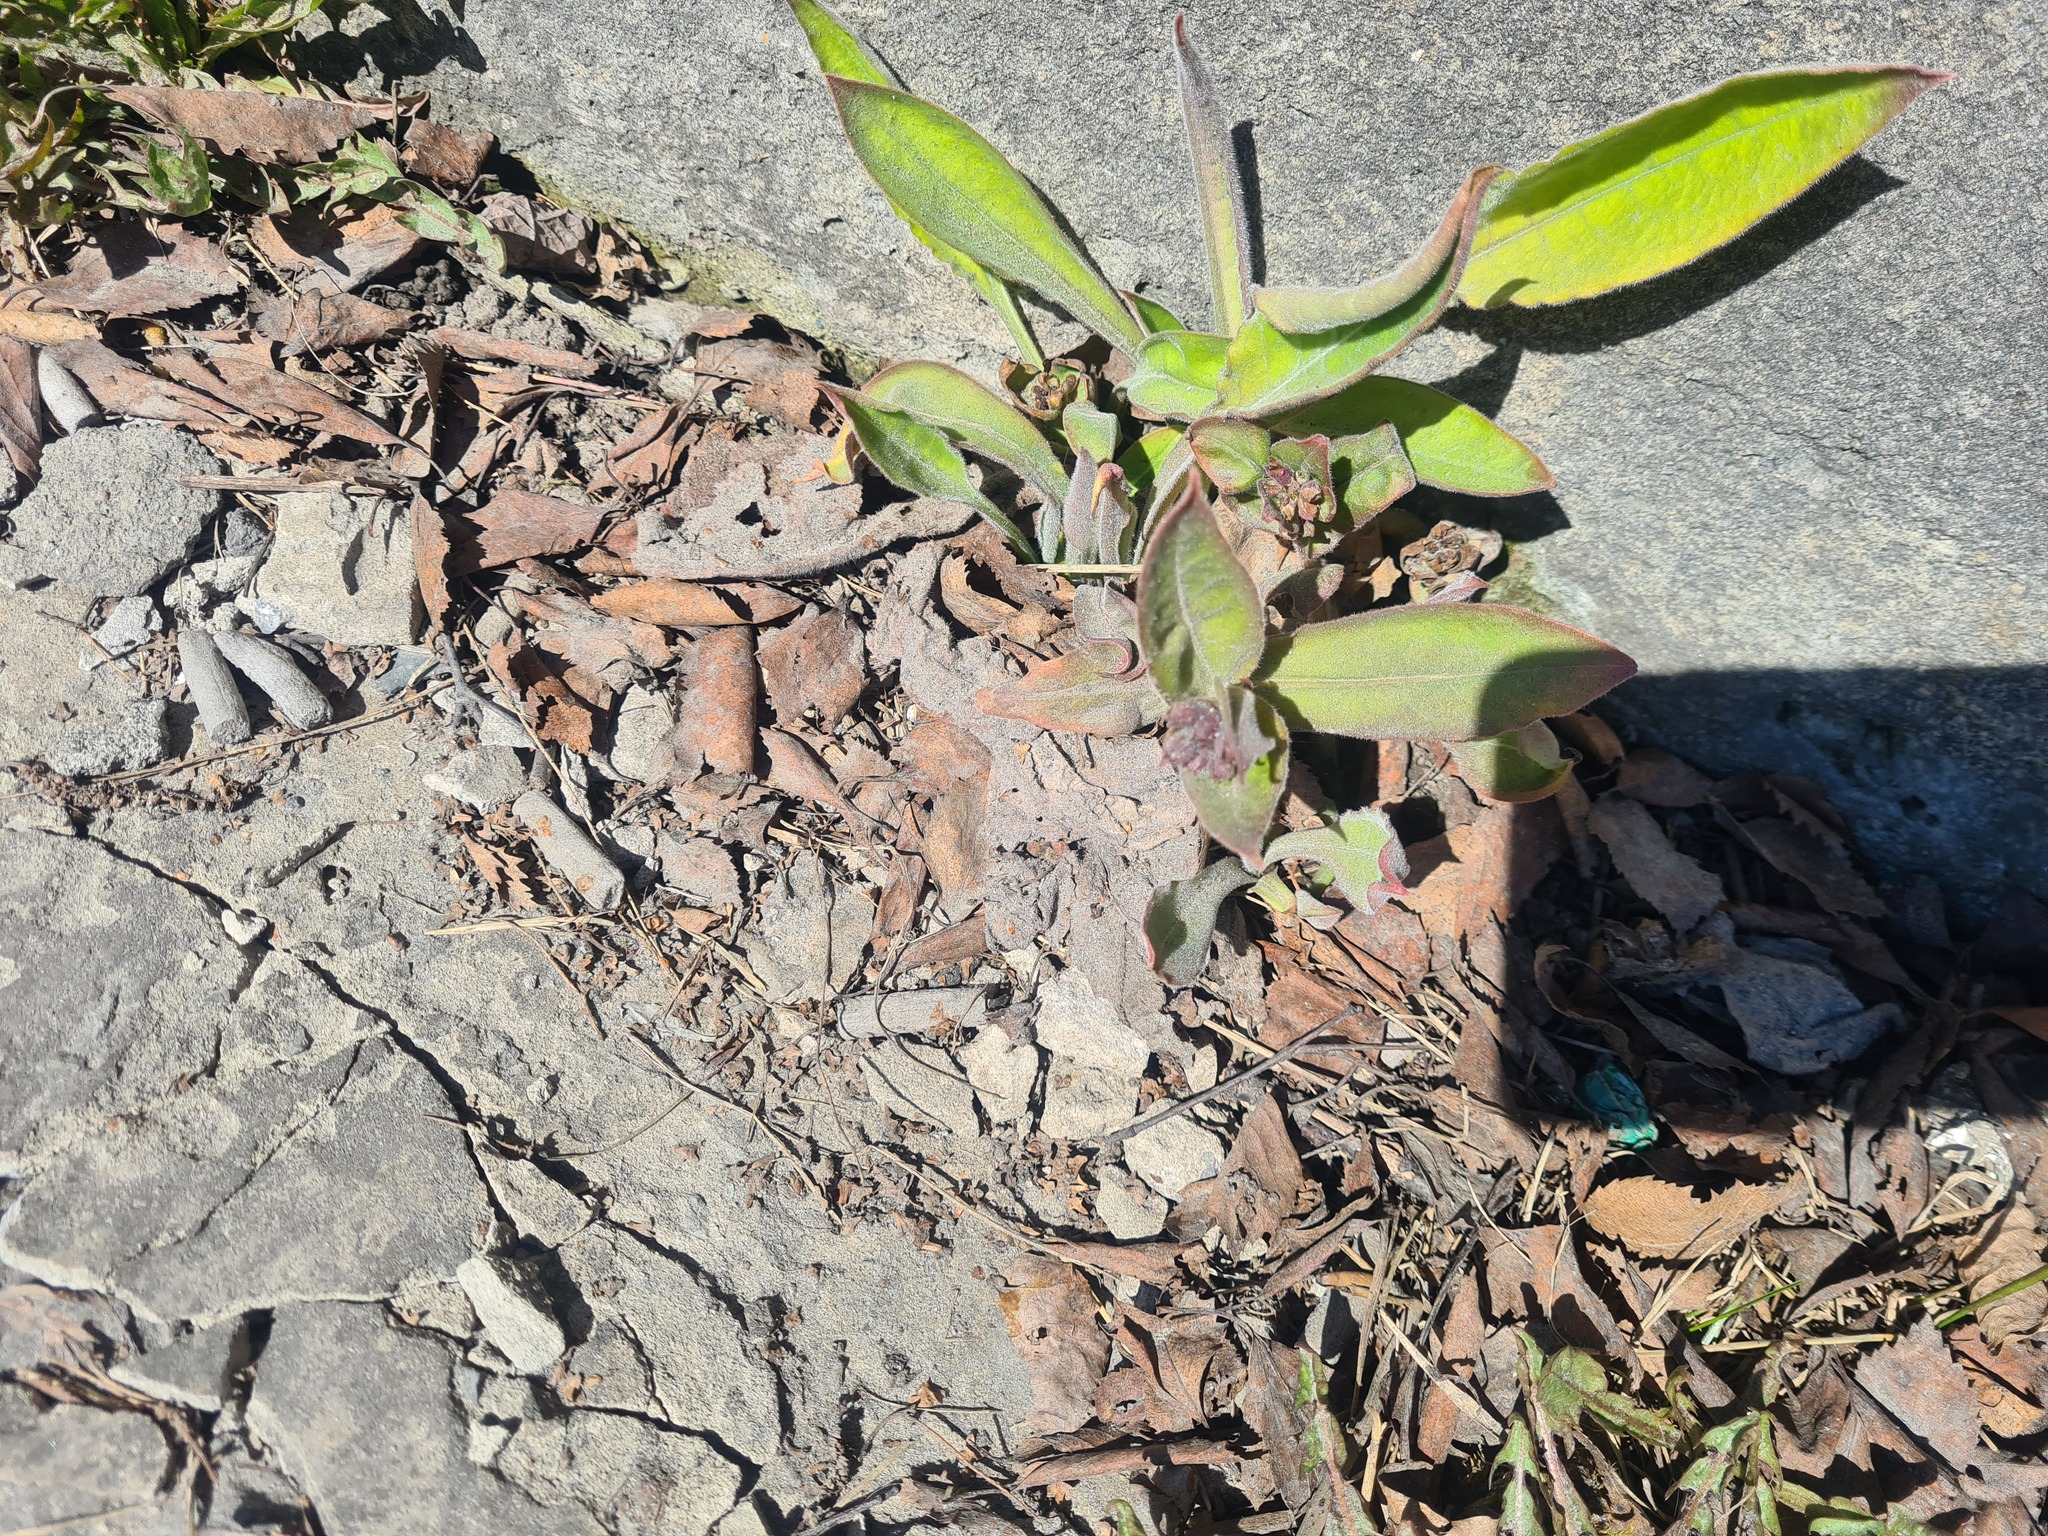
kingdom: Plantae
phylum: Tracheophyta
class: Magnoliopsida
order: Boraginales
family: Boraginaceae
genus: Pulmonaria
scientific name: Pulmonaria mollis
